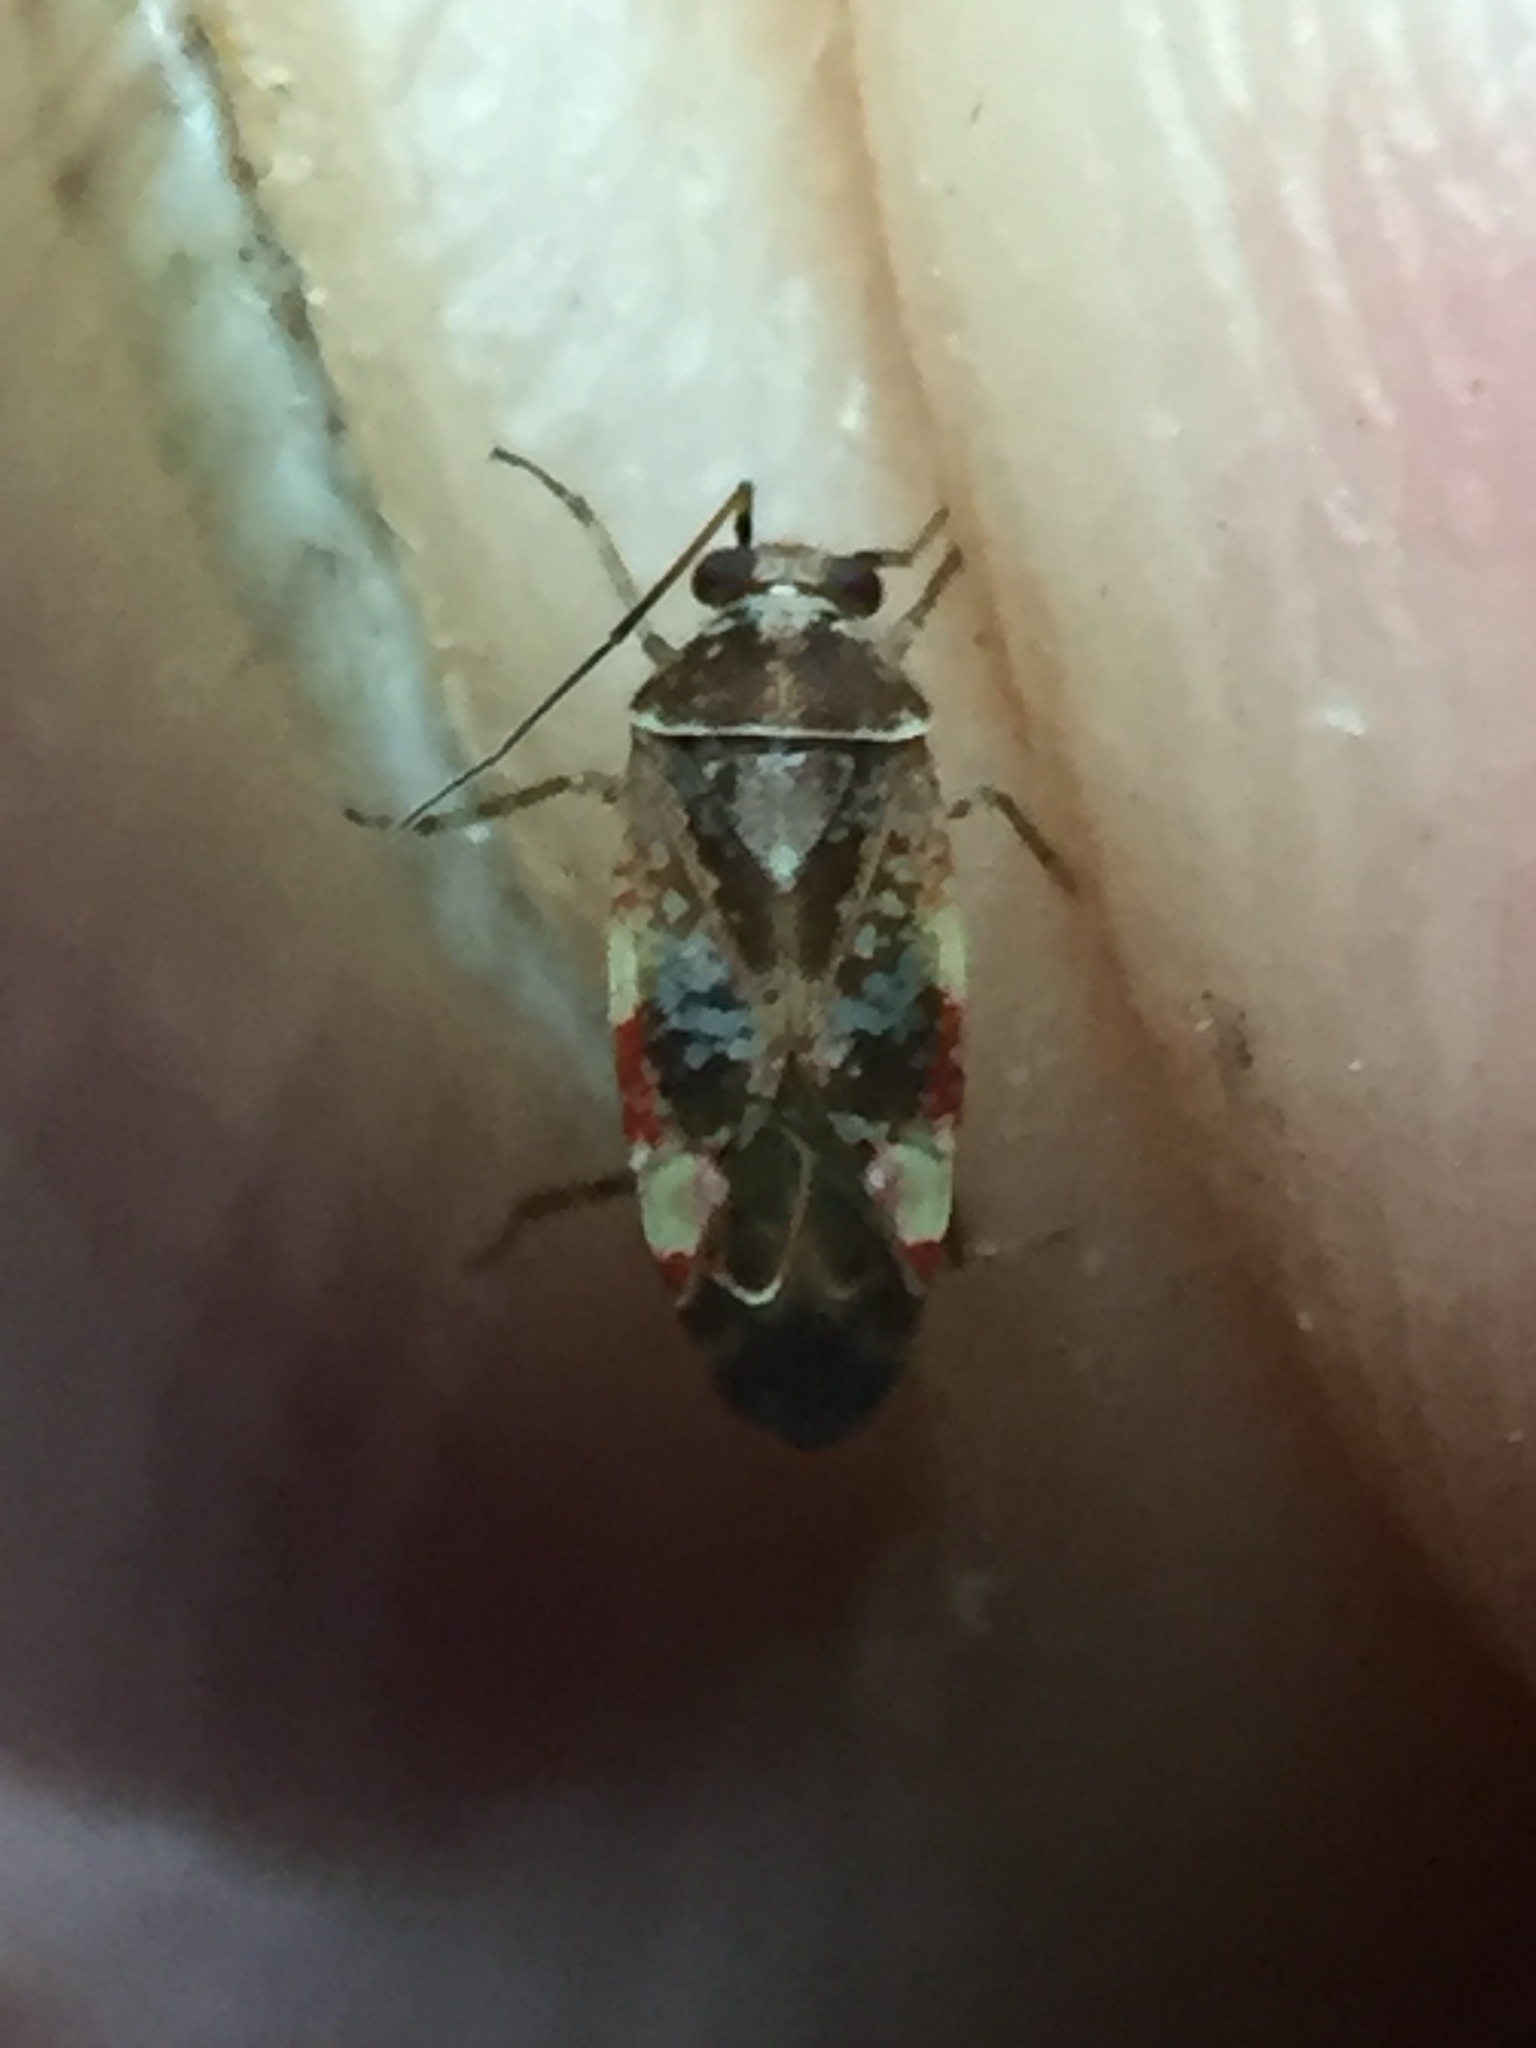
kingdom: Animalia
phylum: Arthropoda
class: Insecta
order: Hemiptera
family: Miridae
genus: Tinginotum
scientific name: Tinginotum minutum
